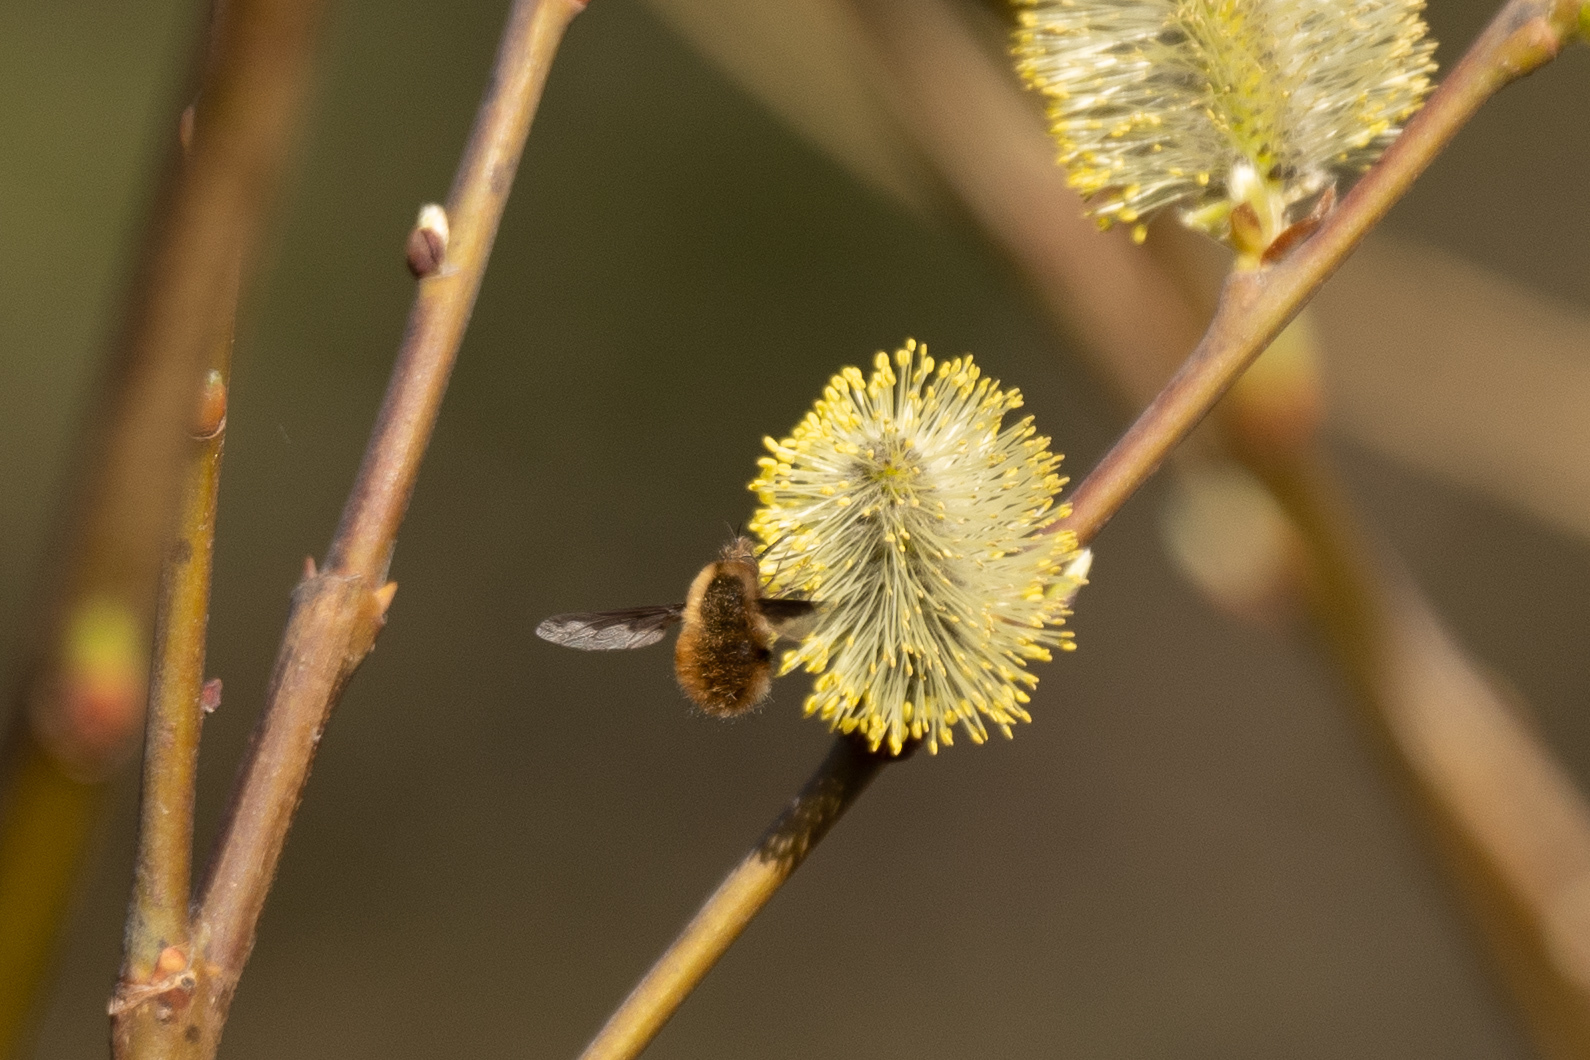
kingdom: Animalia
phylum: Arthropoda
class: Insecta
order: Diptera
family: Bombyliidae
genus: Bombylius
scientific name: Bombylius major
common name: Bee fly
